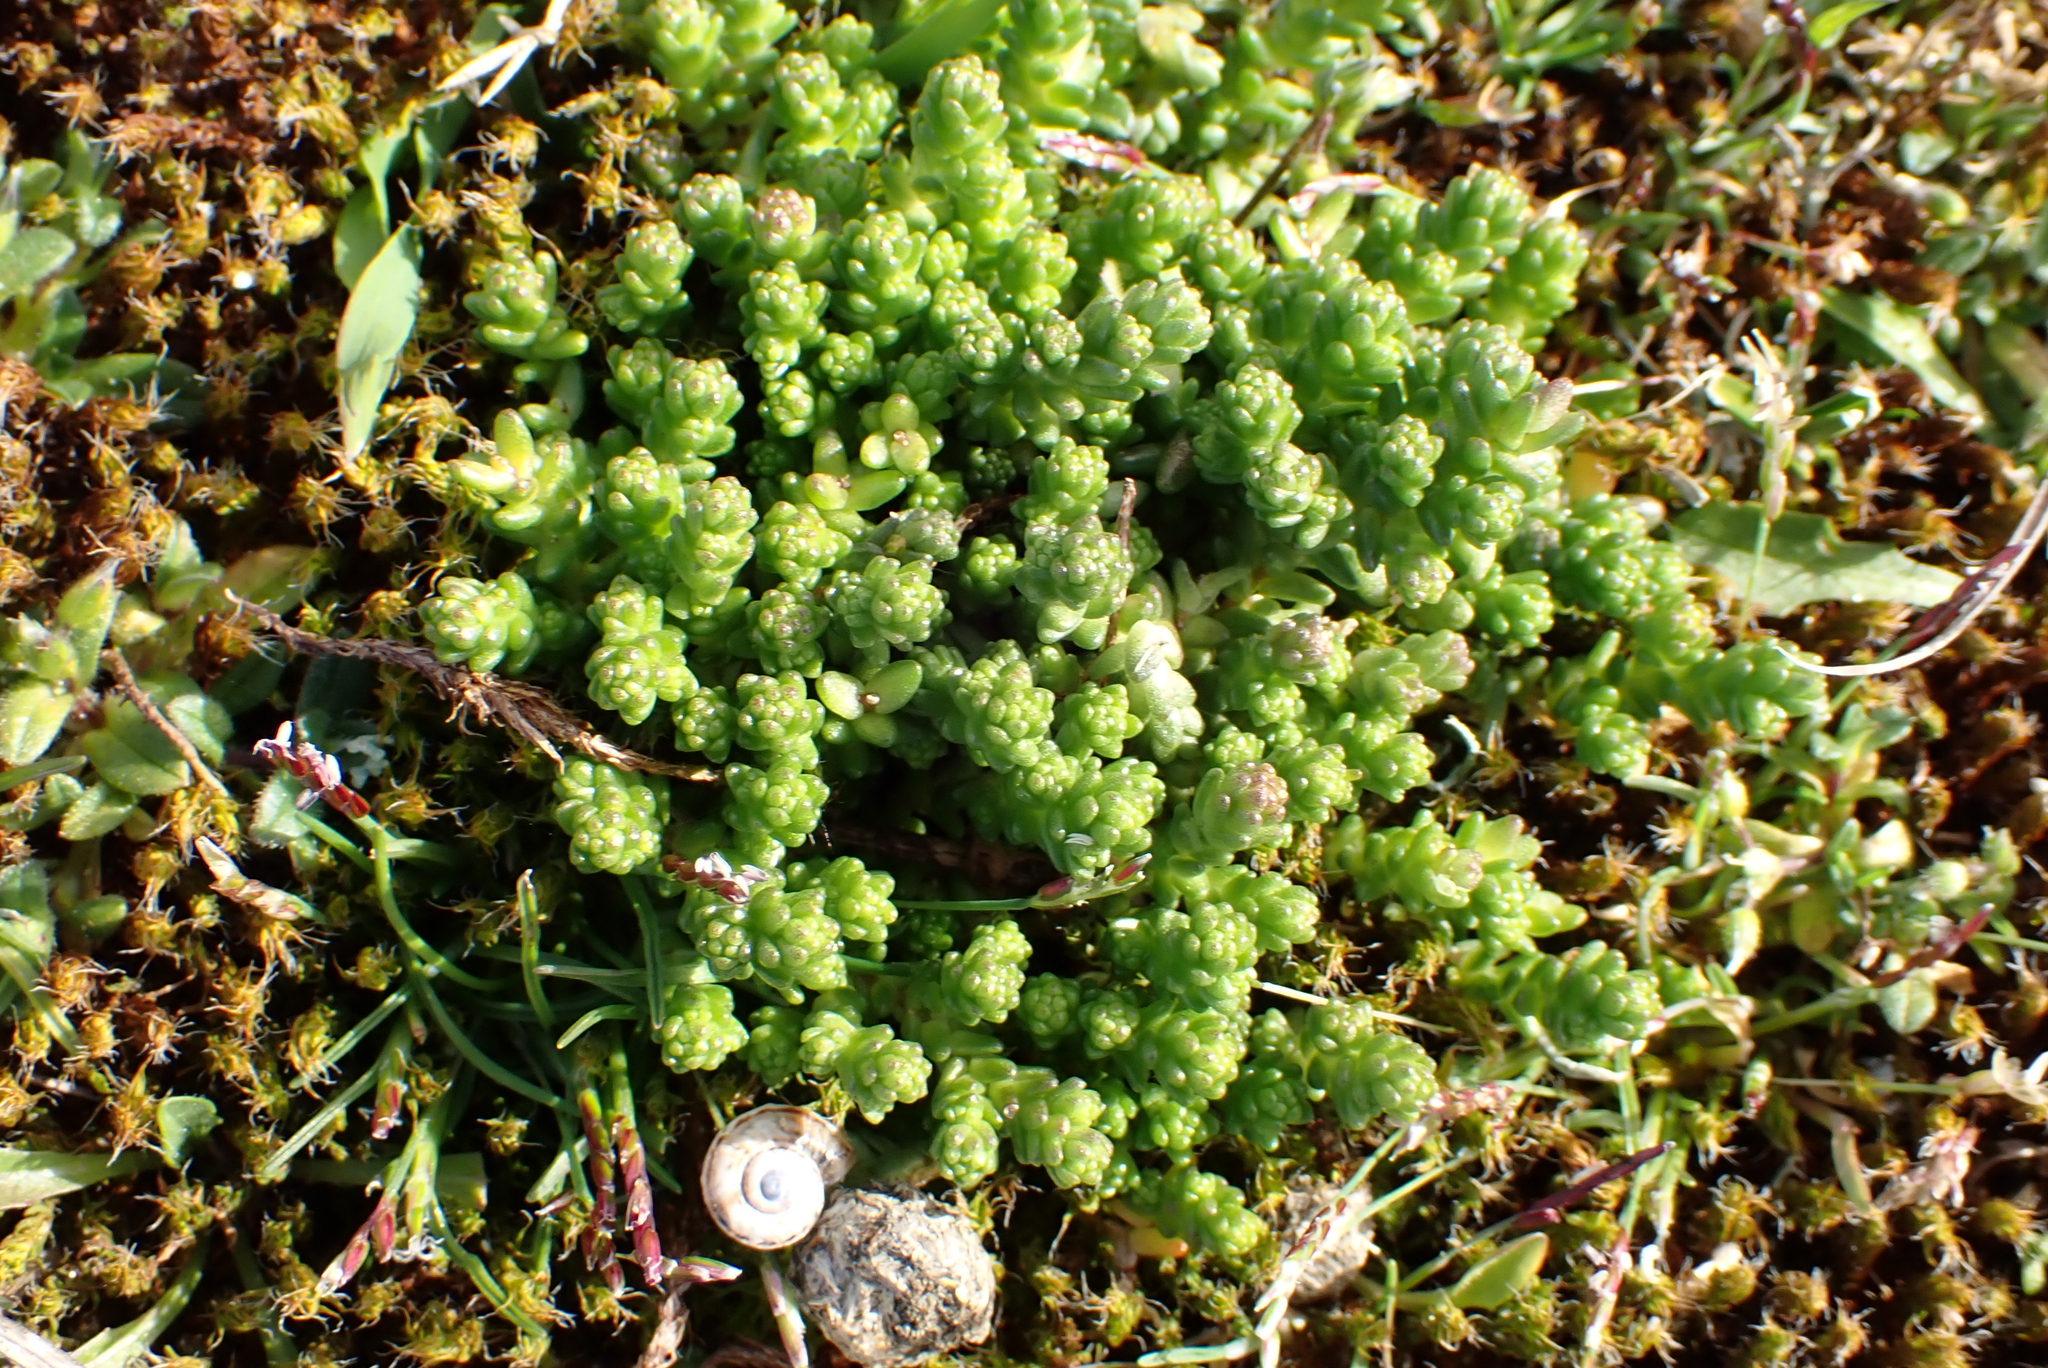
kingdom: Plantae
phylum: Tracheophyta
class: Magnoliopsida
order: Saxifragales
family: Crassulaceae
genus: Sedum
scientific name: Sedum acre
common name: Biting stonecrop
